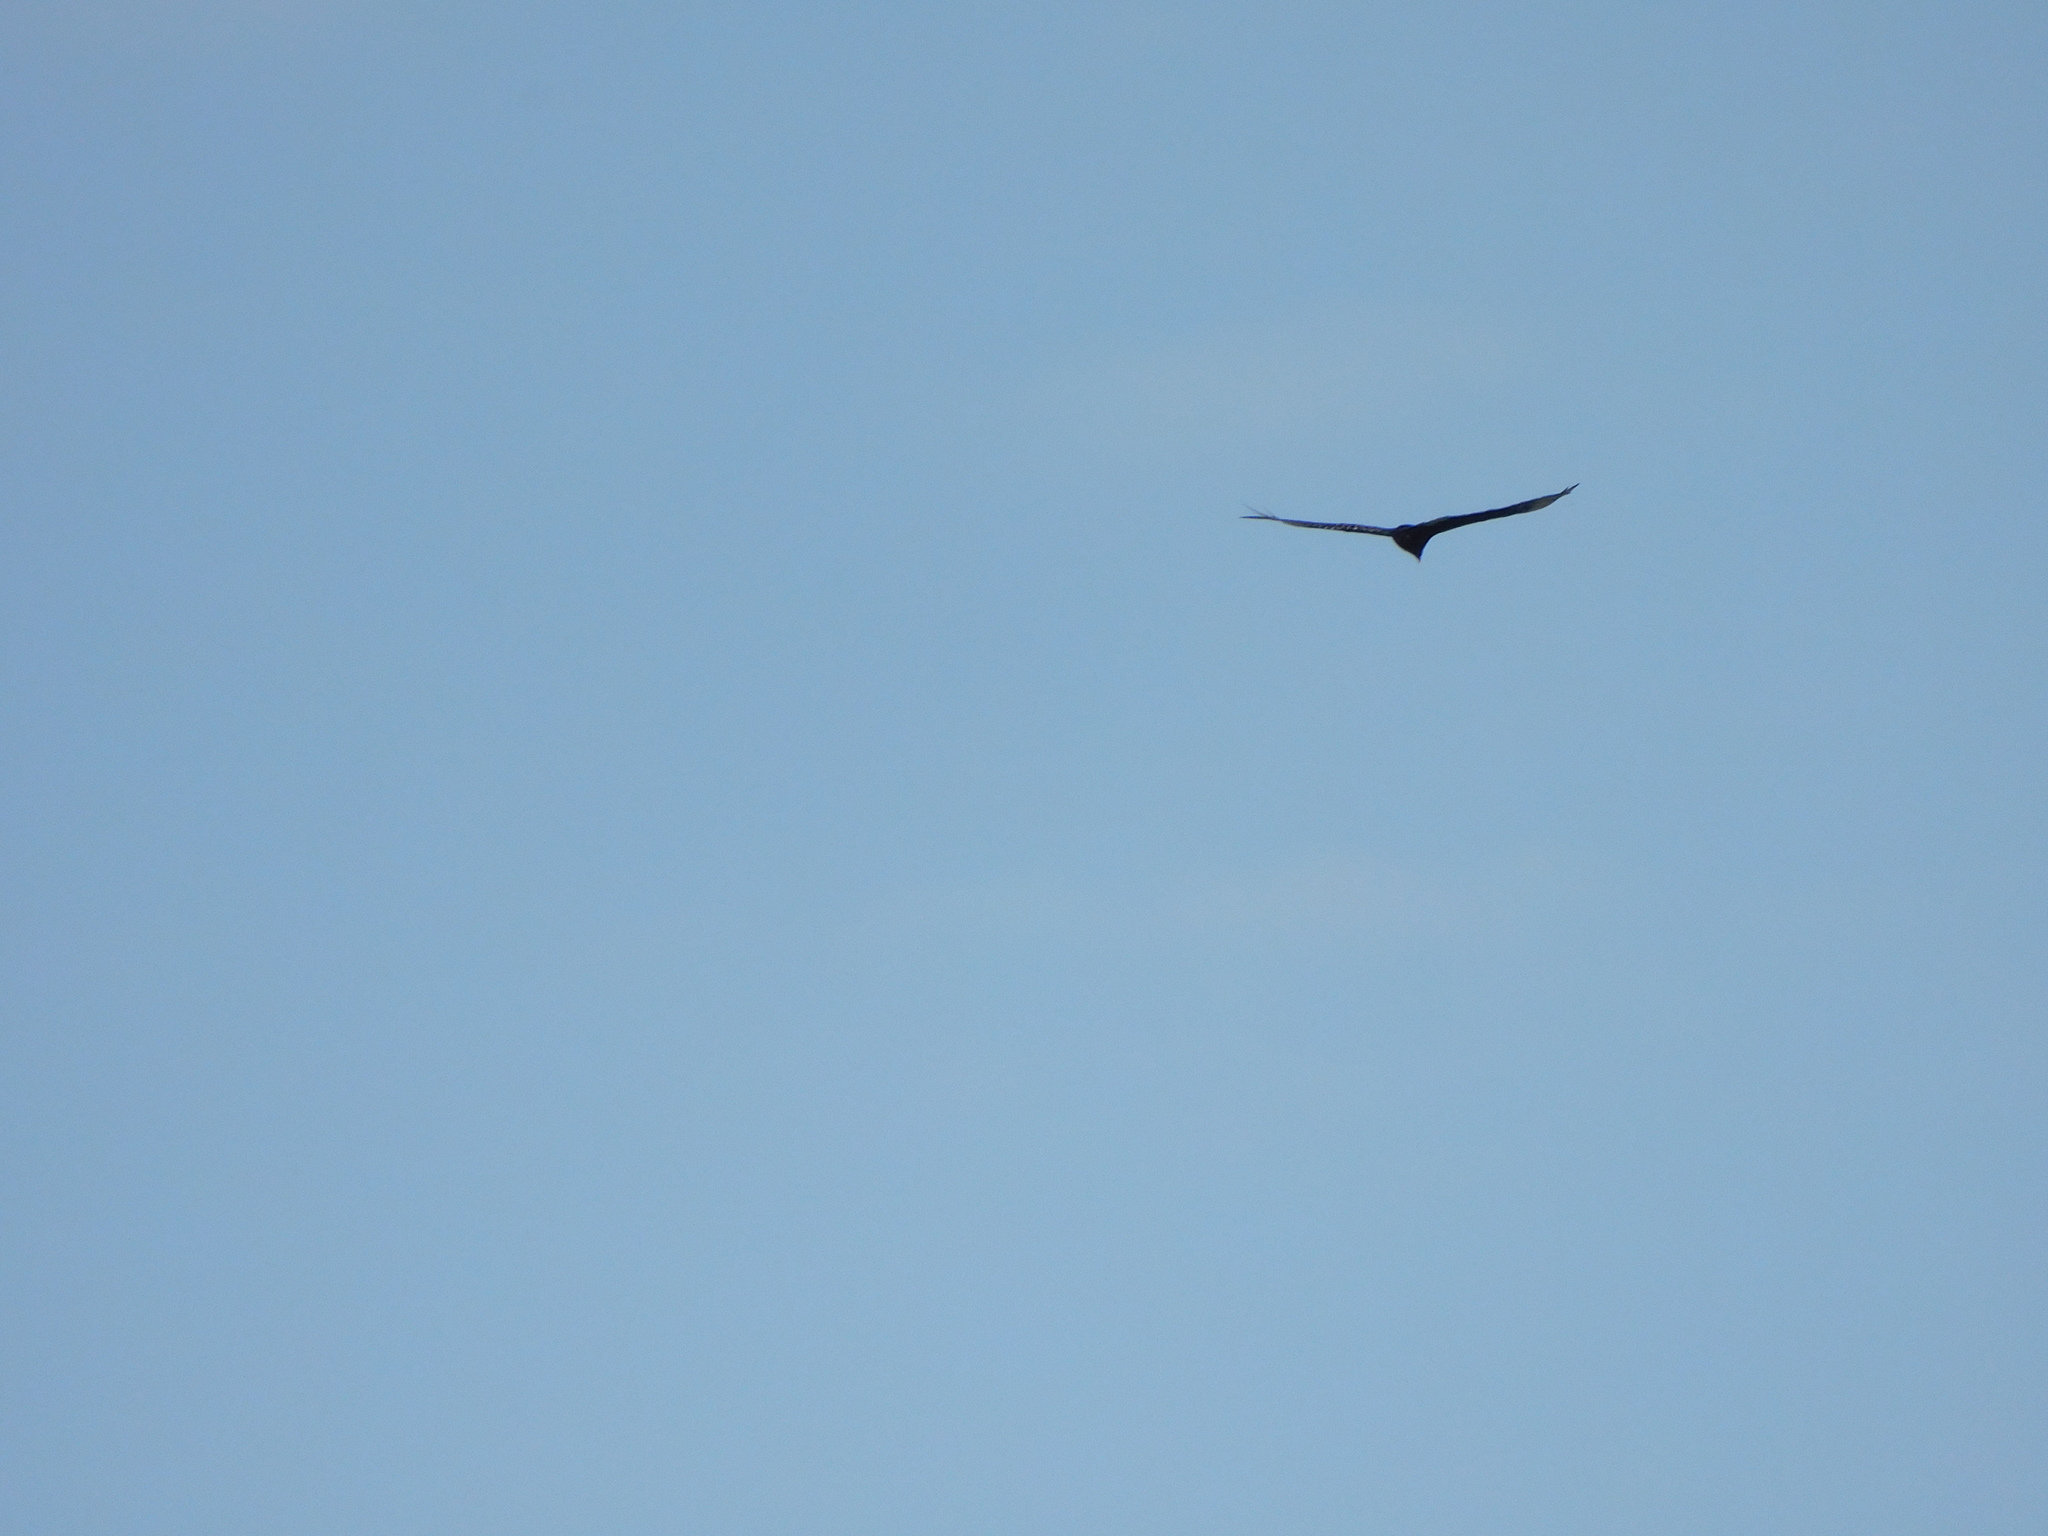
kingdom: Animalia
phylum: Chordata
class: Aves
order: Accipitriformes
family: Cathartidae
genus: Cathartes
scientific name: Cathartes aura
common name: Turkey vulture
